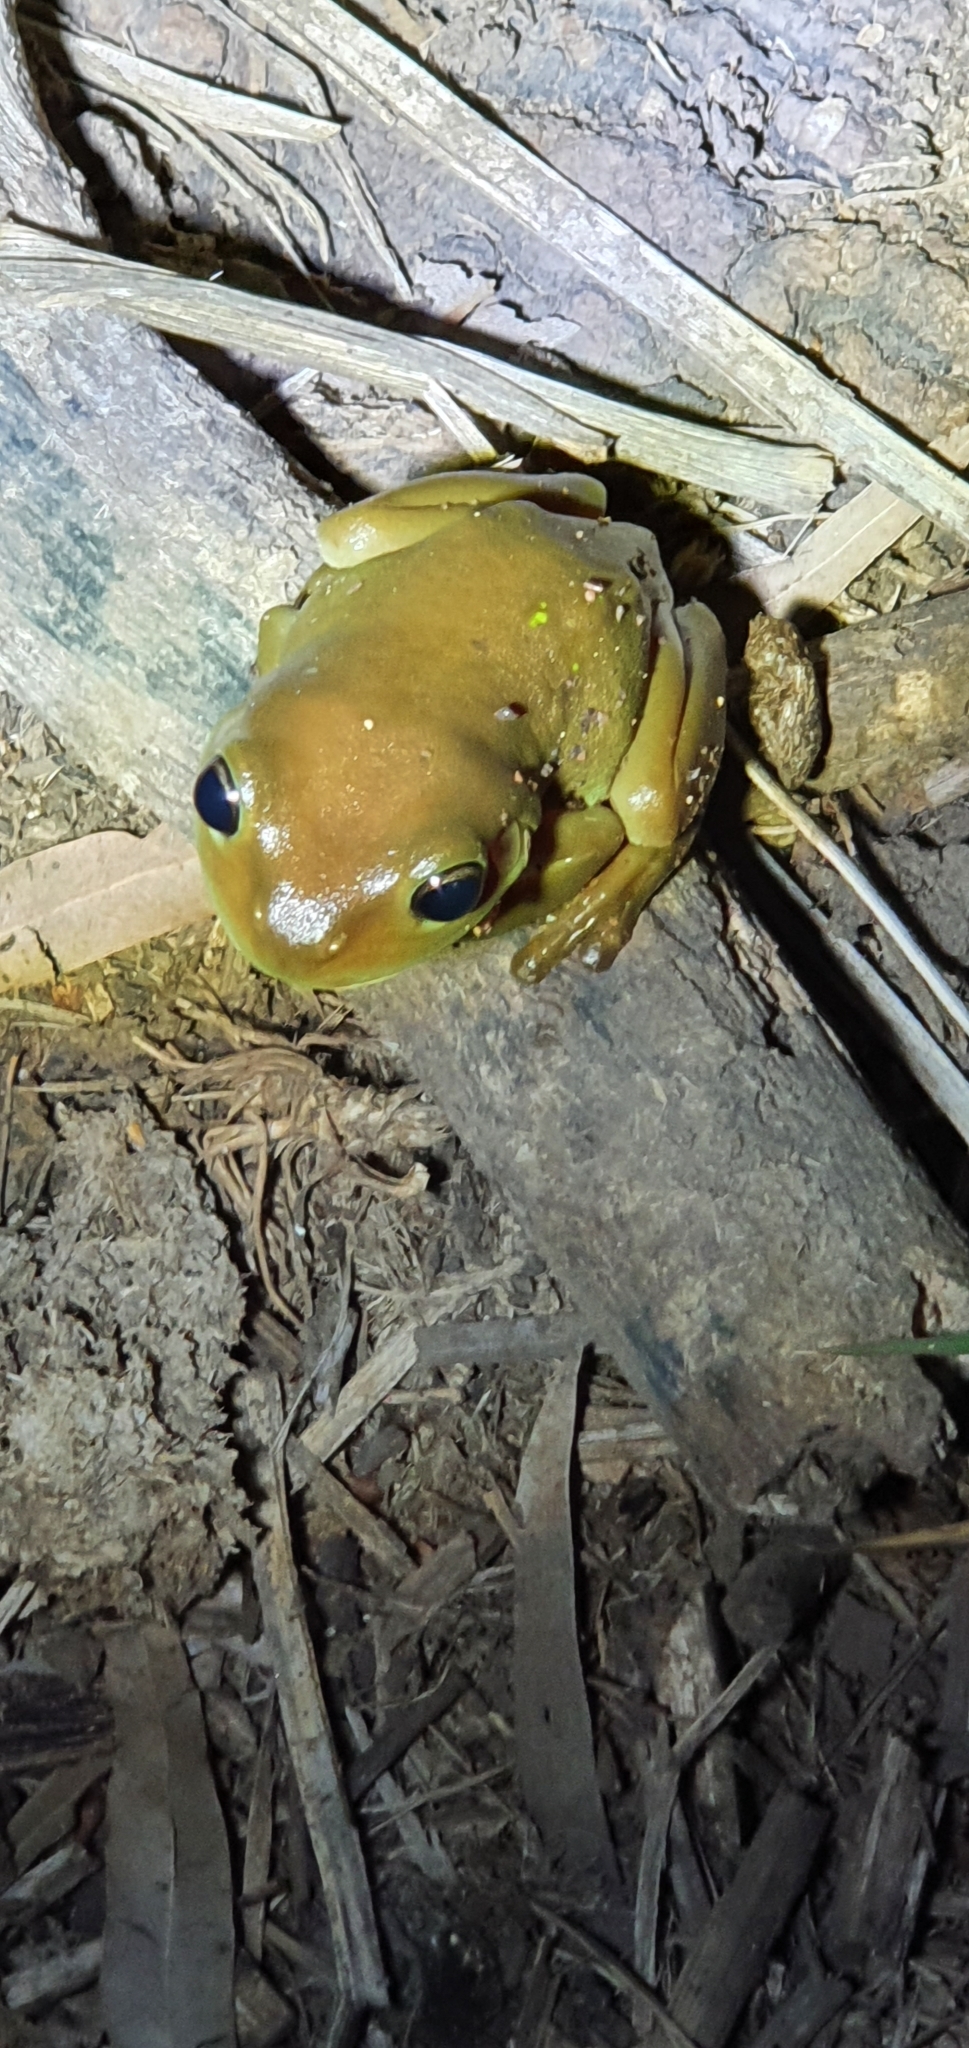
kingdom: Animalia
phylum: Chordata
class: Amphibia
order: Anura
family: Pelodryadidae
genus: Ranoidea
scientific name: Ranoidea caerulea
